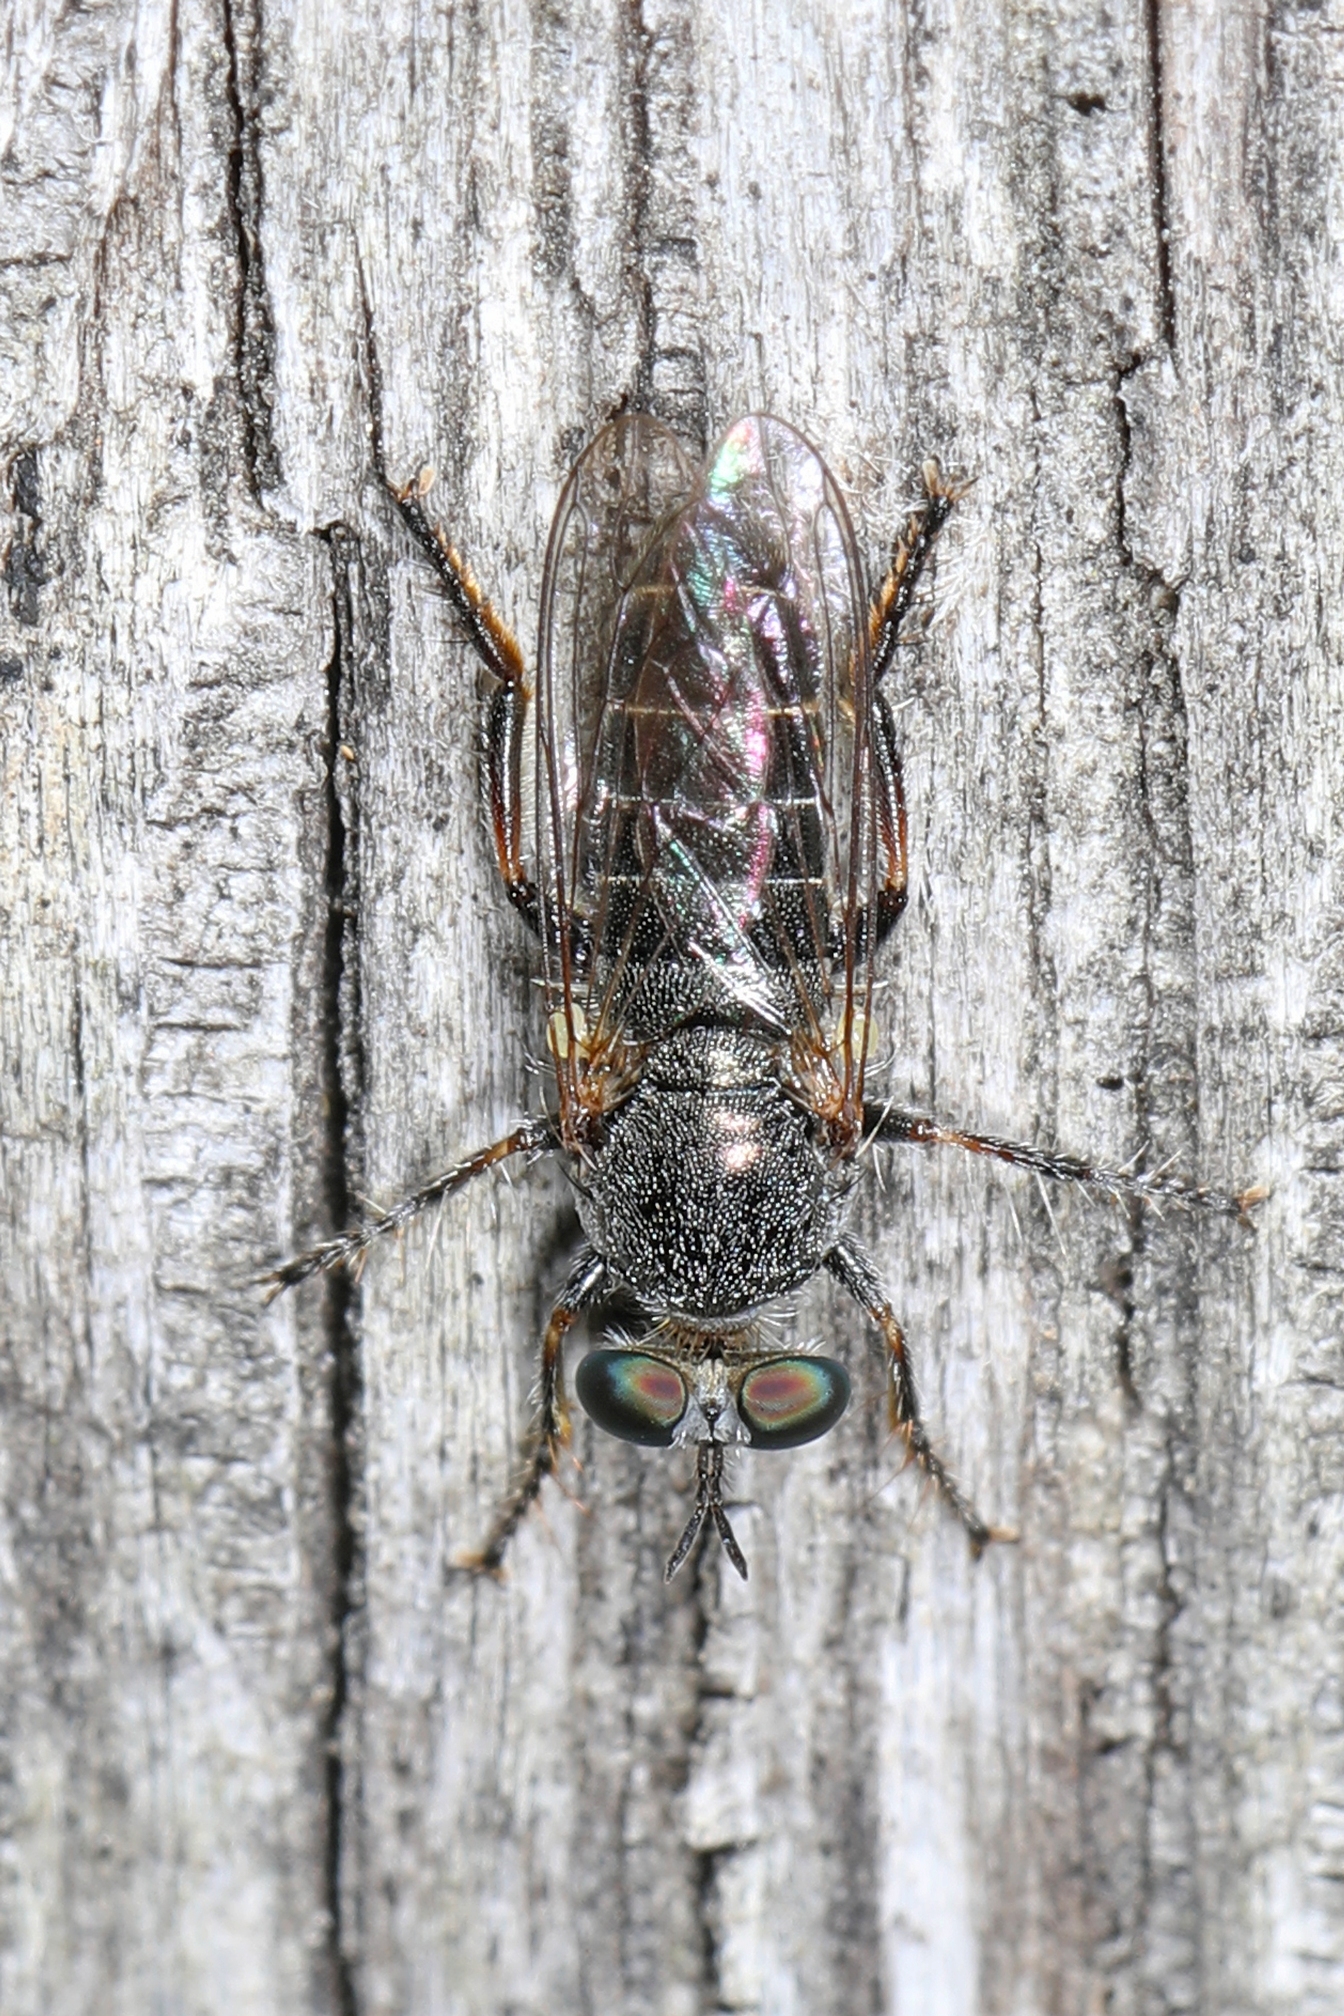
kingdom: Animalia
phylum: Arthropoda
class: Insecta
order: Diptera
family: Asilidae
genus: Atomosia
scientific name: Atomosia puella
